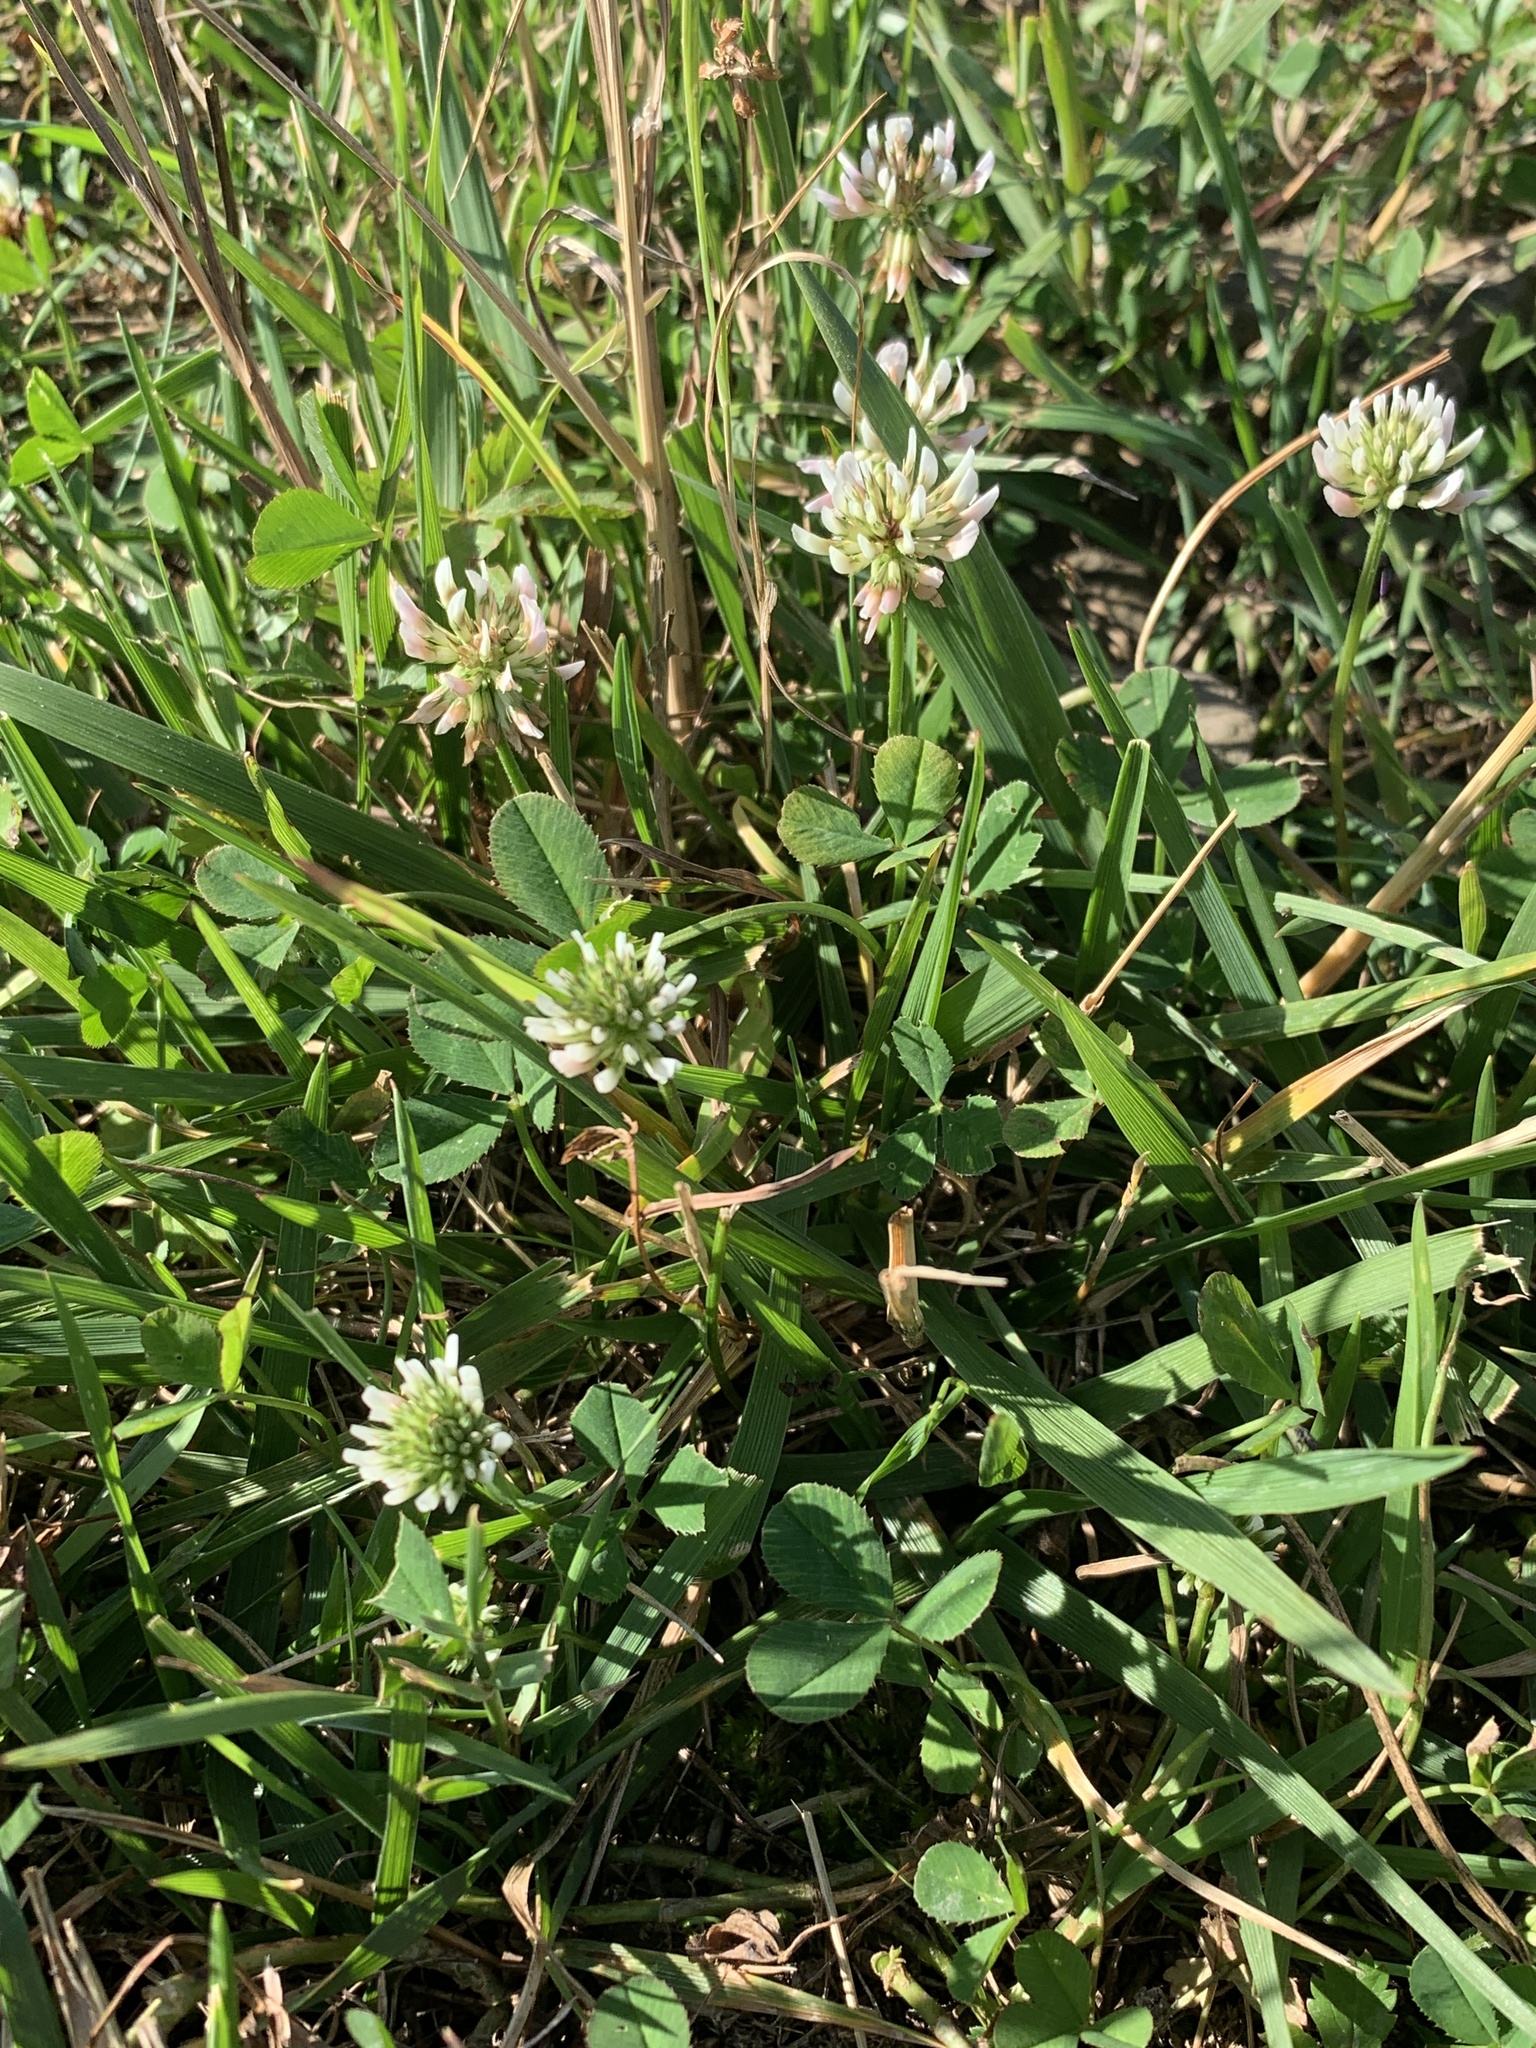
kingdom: Plantae
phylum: Tracheophyta
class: Magnoliopsida
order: Fabales
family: Fabaceae
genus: Trifolium
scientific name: Trifolium repens
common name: White clover
